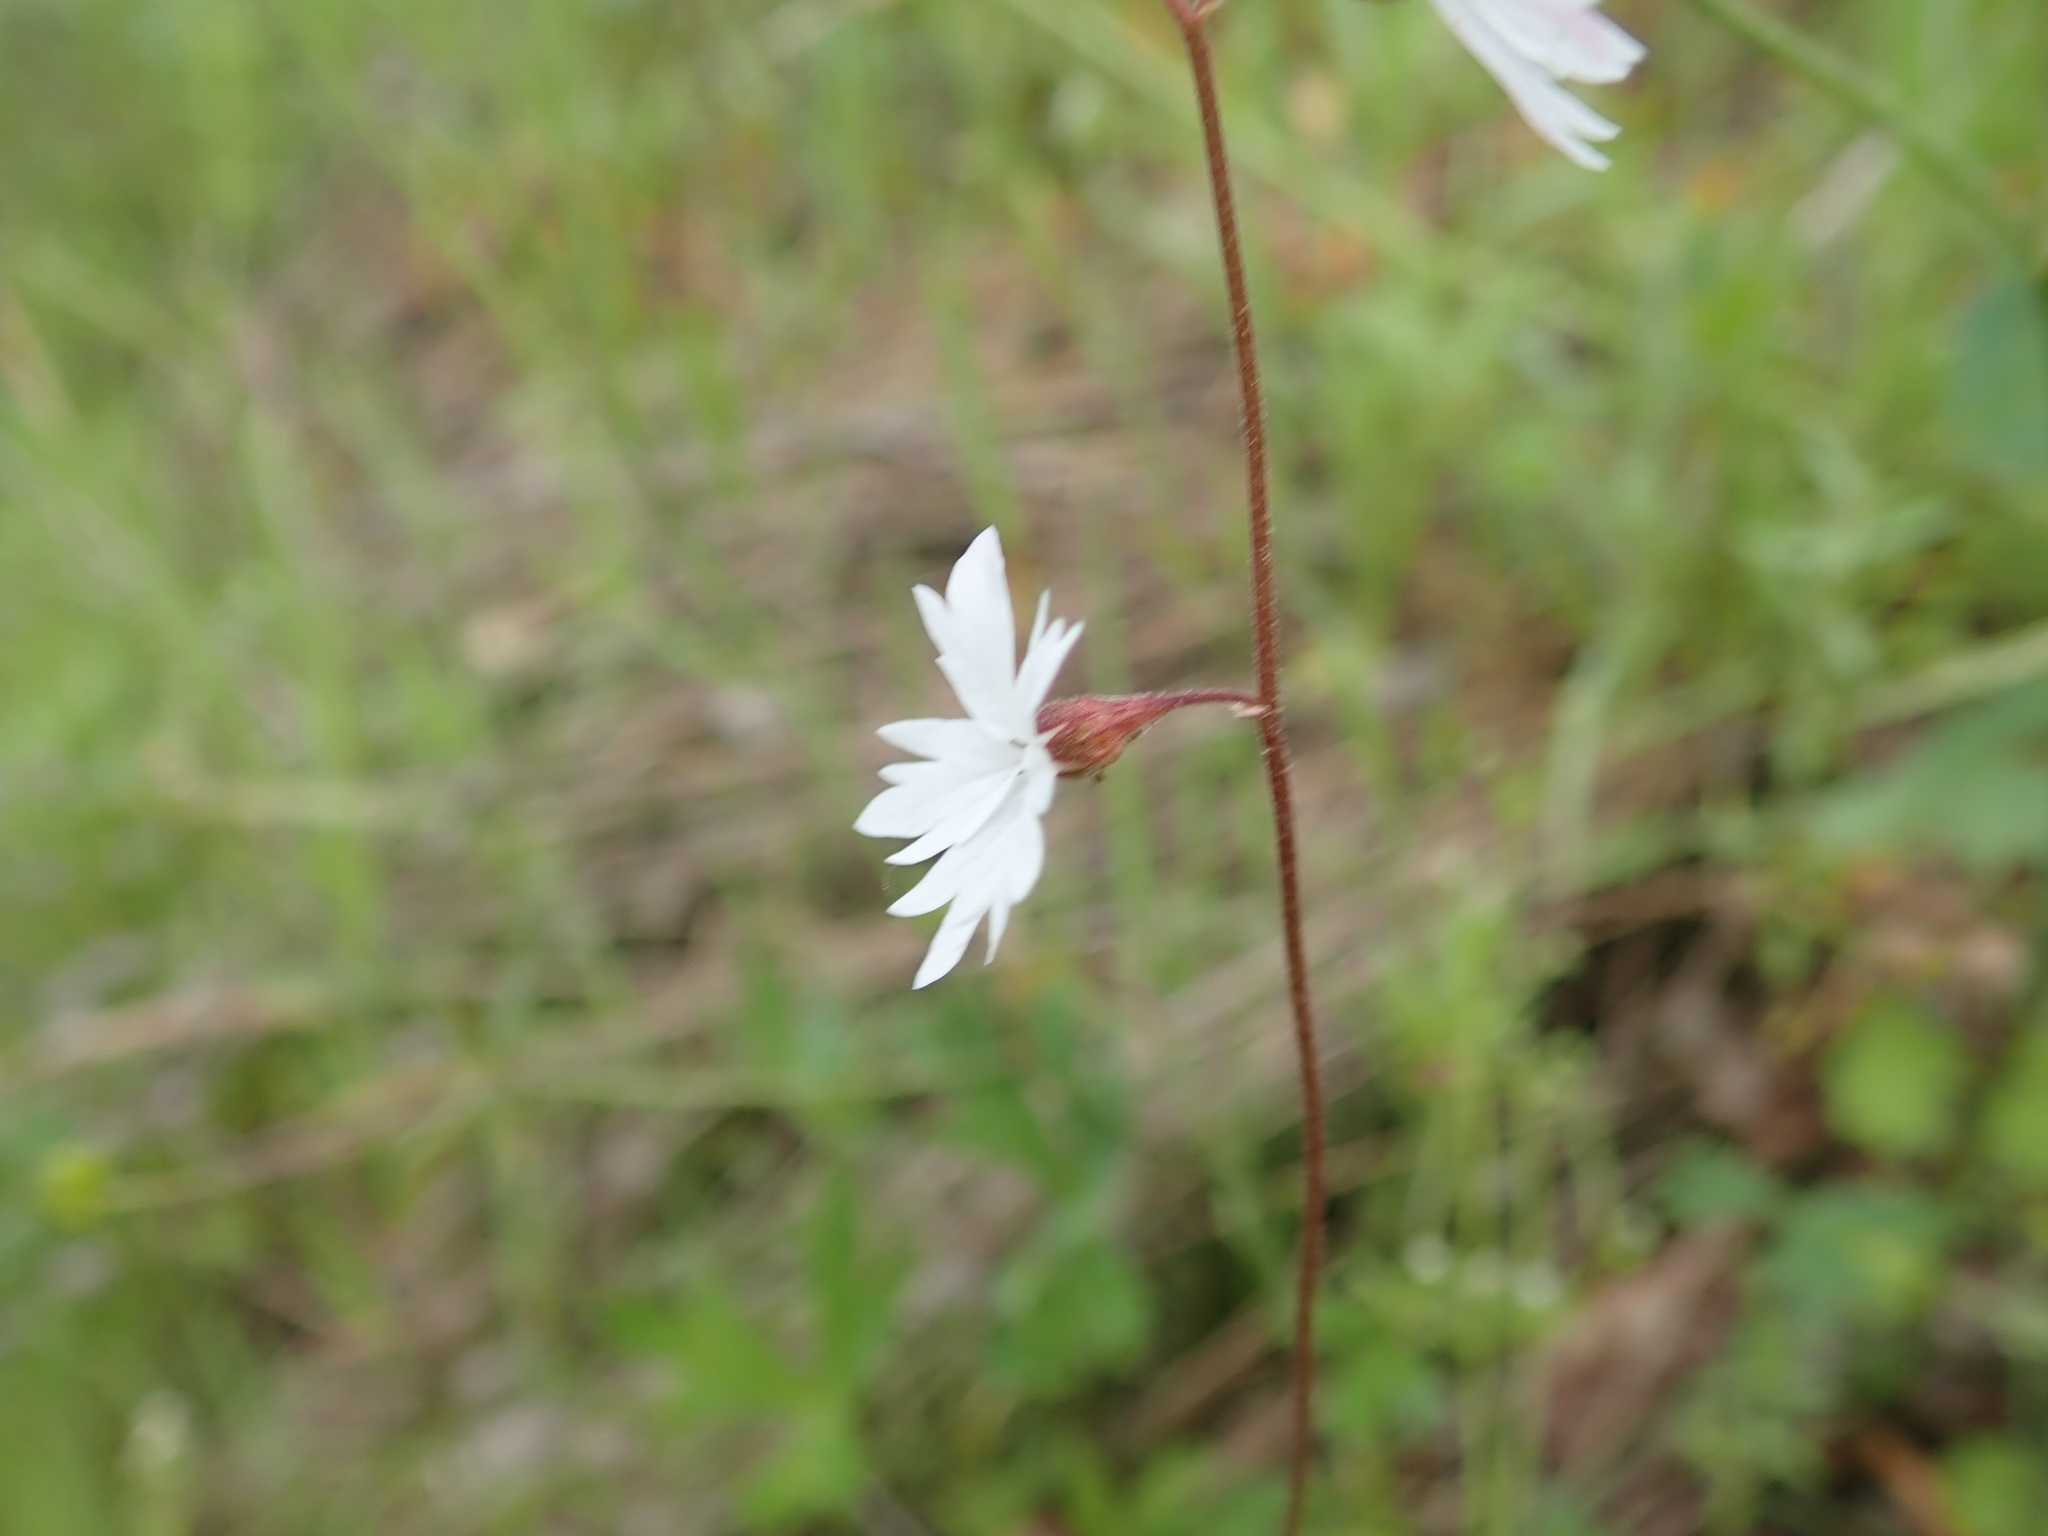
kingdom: Plantae
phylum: Tracheophyta
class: Magnoliopsida
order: Saxifragales
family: Saxifragaceae
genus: Lithophragma
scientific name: Lithophragma affine
